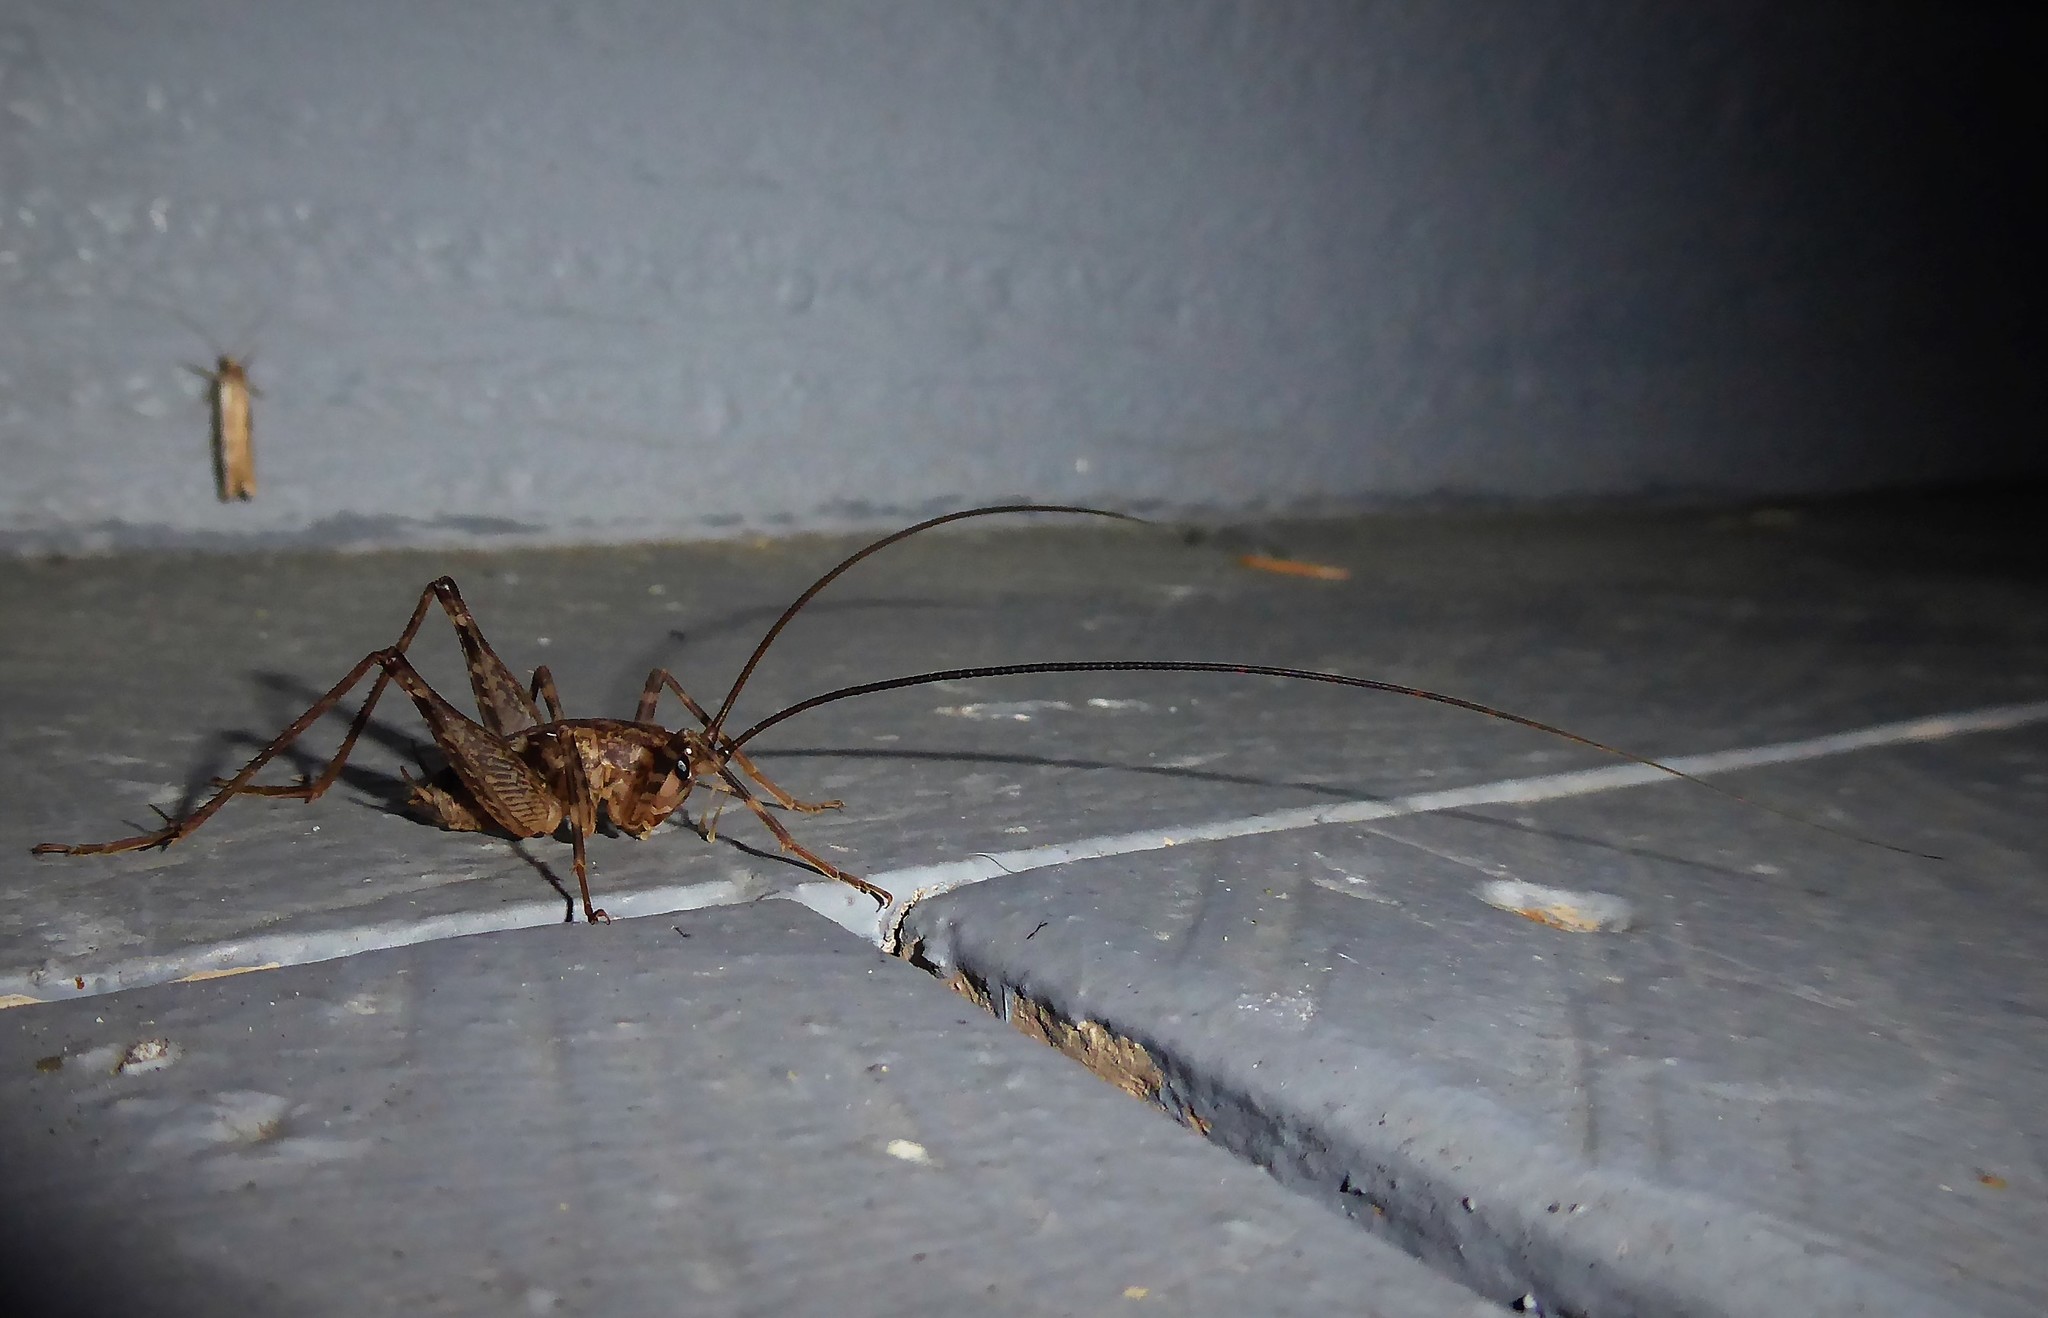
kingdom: Animalia
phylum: Arthropoda
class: Insecta
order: Orthoptera
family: Rhaphidophoridae
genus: Pleioplectron
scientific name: Pleioplectron simplex
